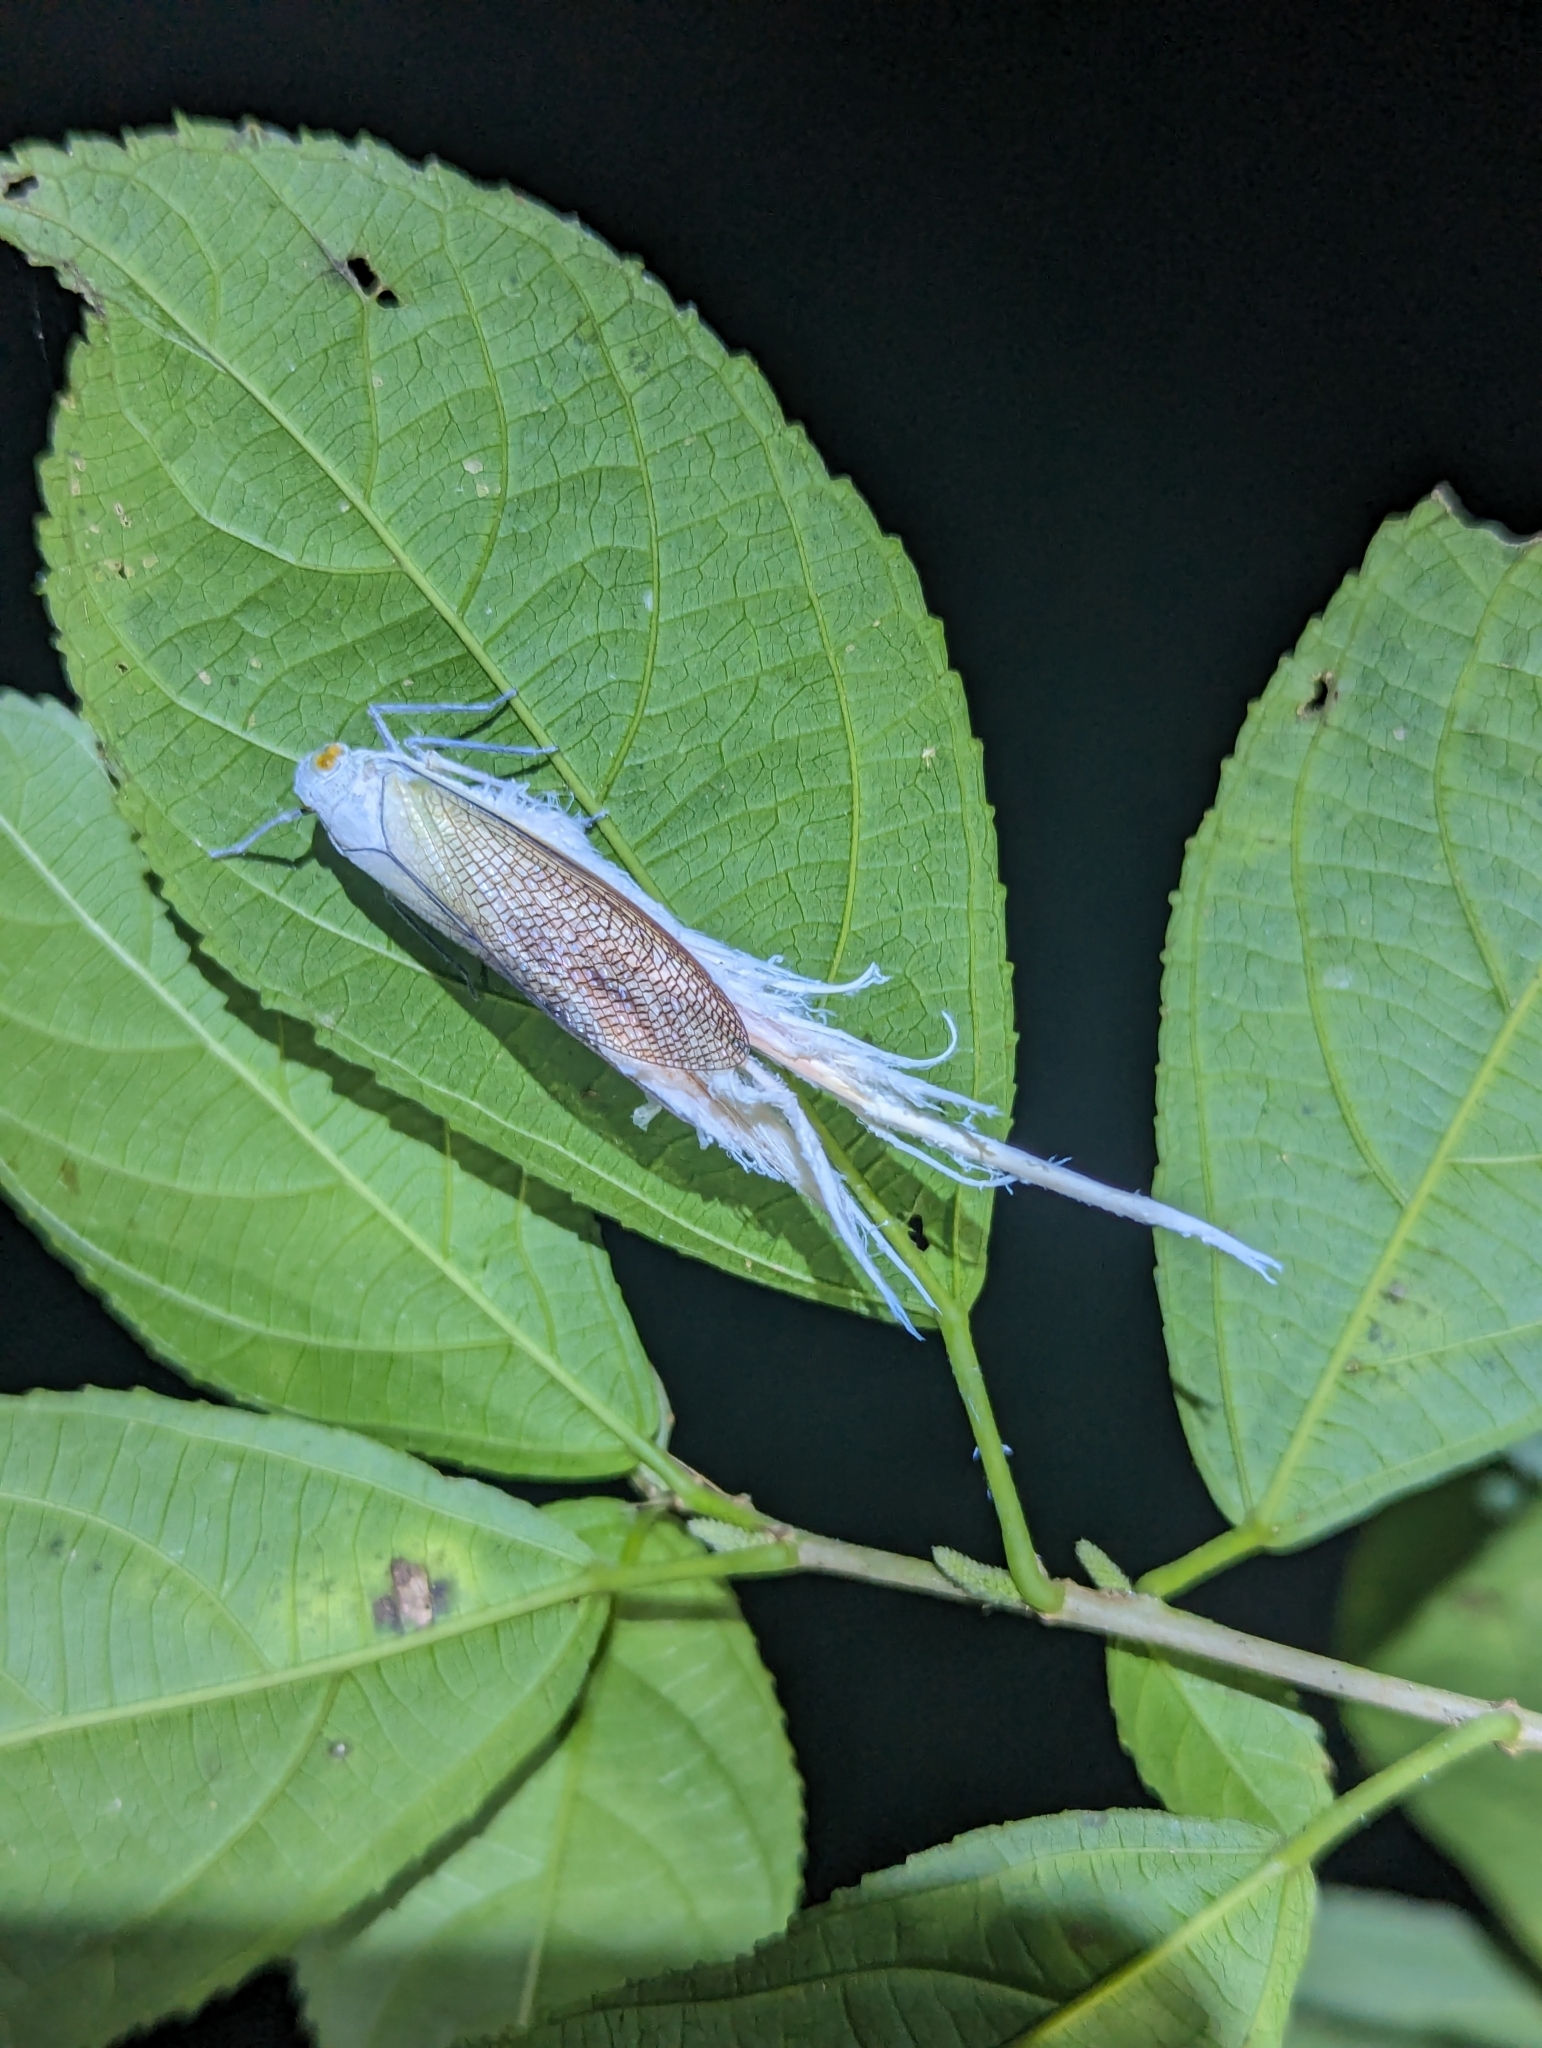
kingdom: Animalia
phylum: Arthropoda
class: Insecta
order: Hemiptera
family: Fulgoridae
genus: Pterodictya
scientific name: Pterodictya reticularis
